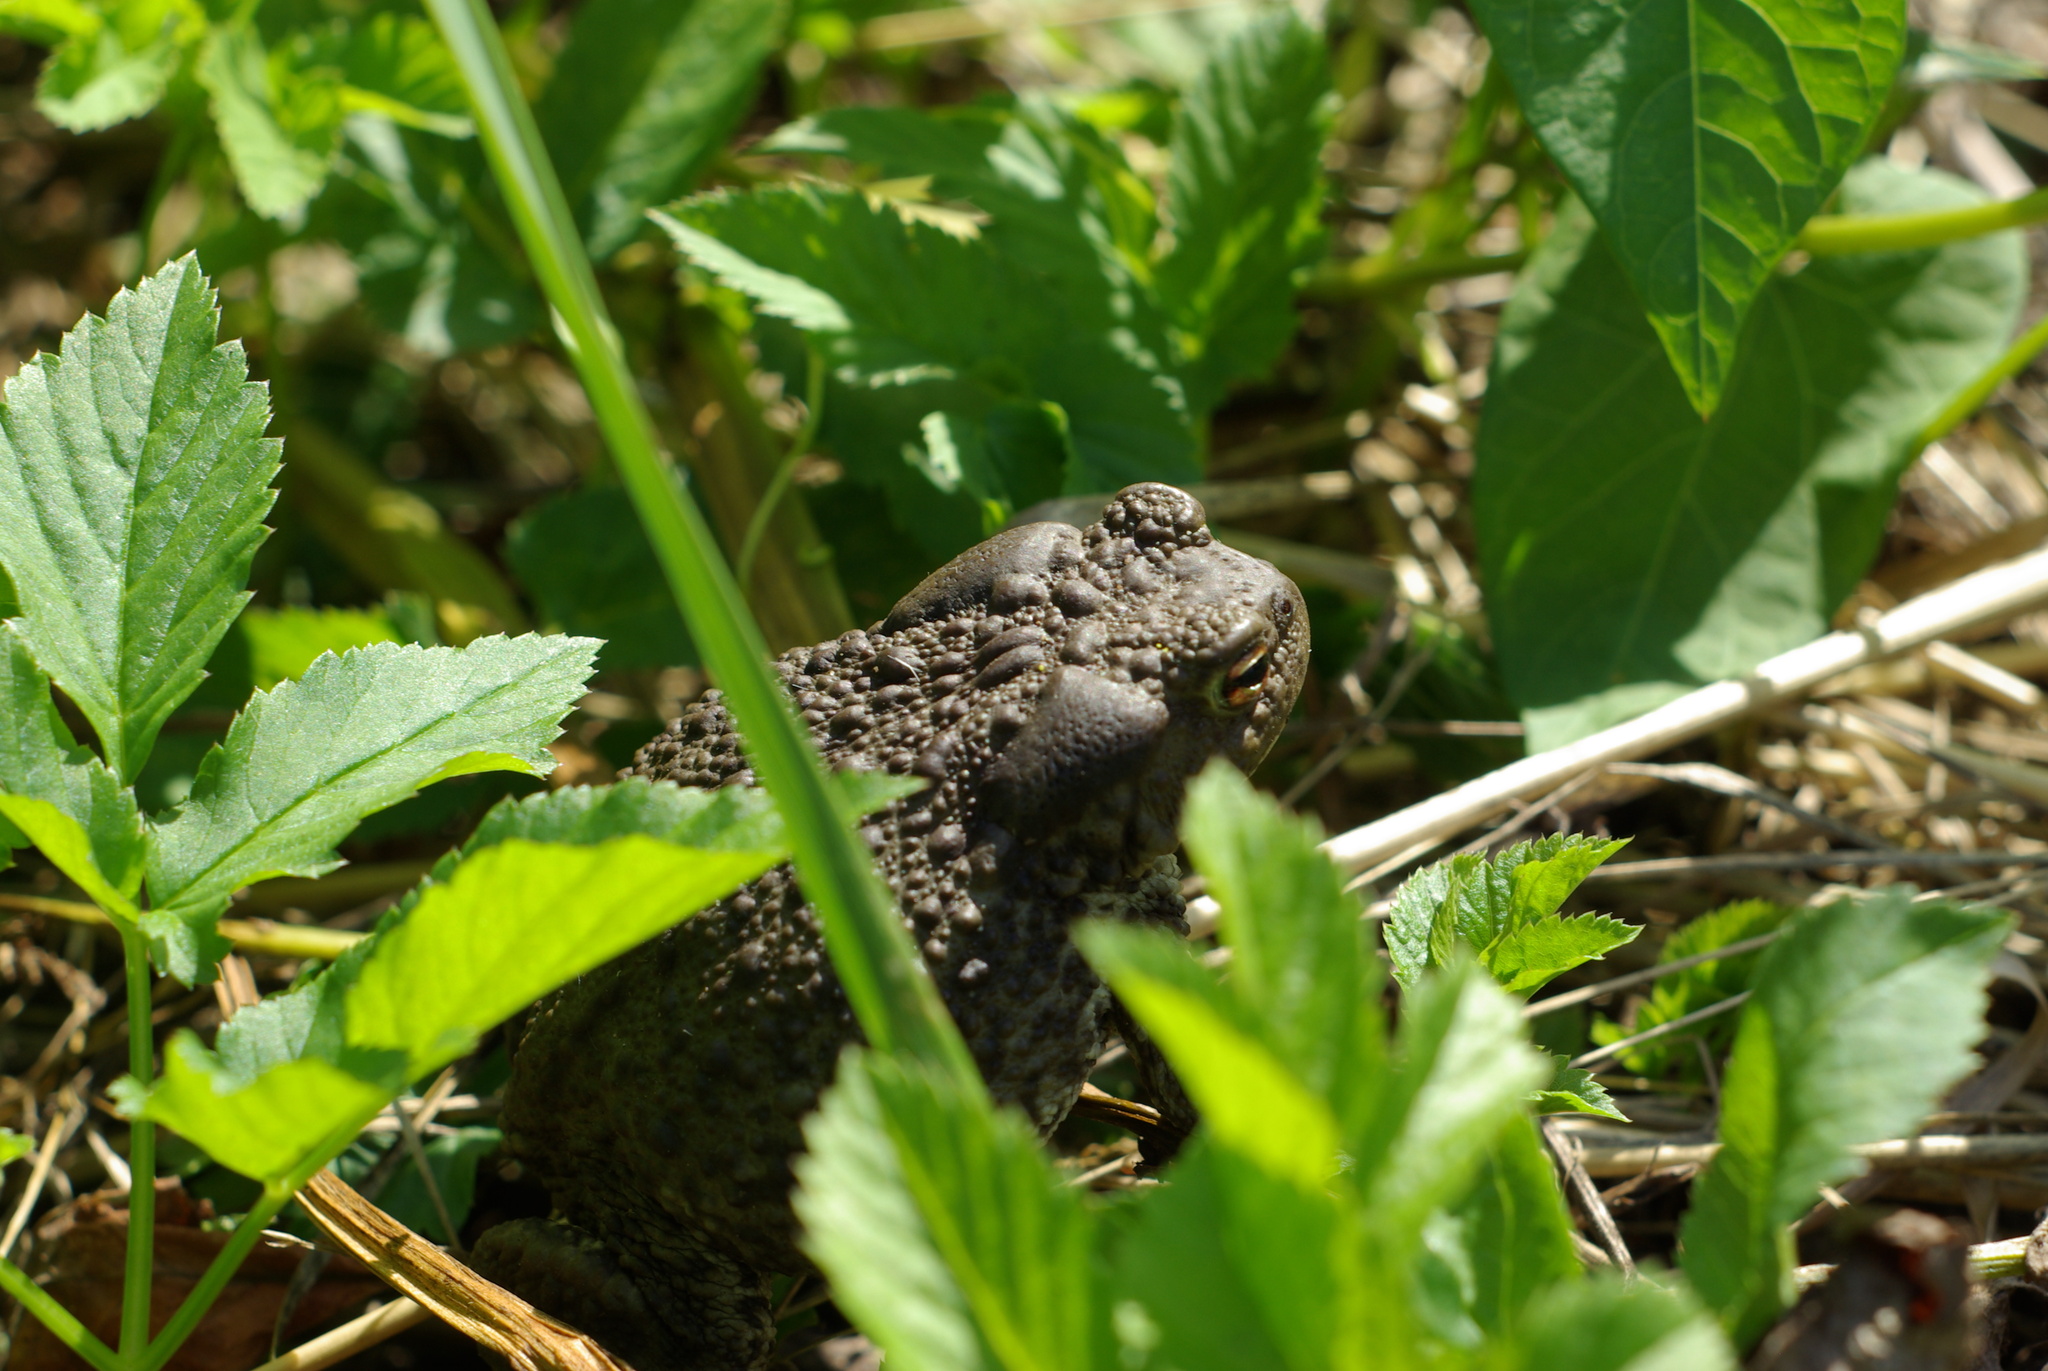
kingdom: Animalia
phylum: Chordata
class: Amphibia
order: Anura
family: Bufonidae
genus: Bufo
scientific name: Bufo bufo
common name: Common toad
